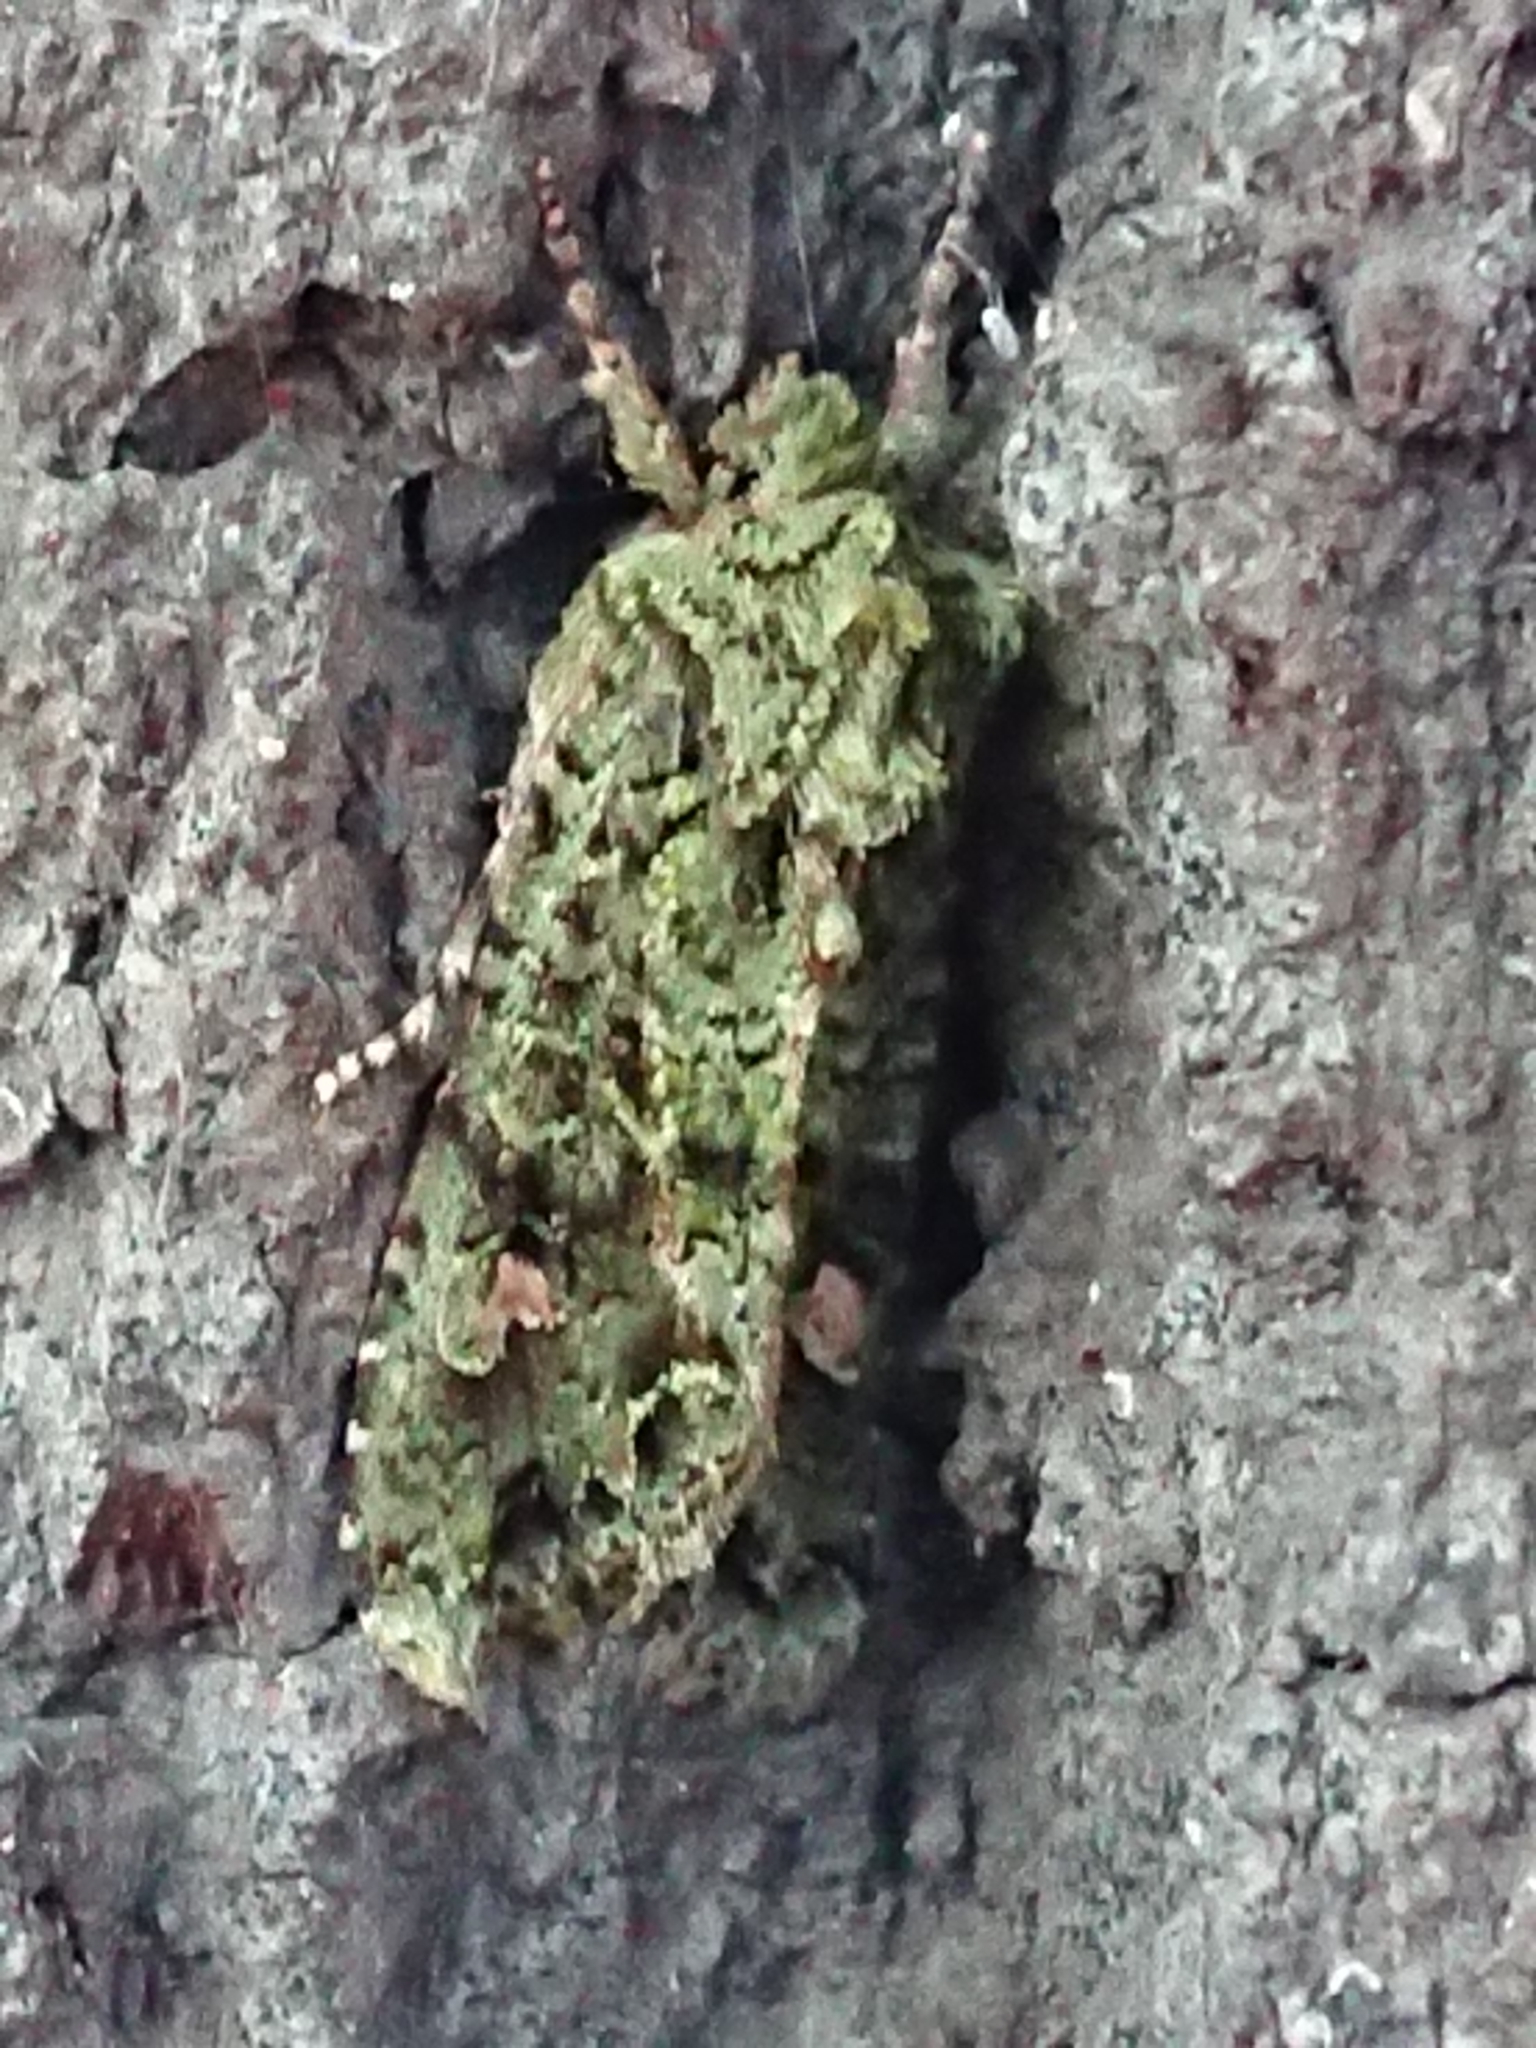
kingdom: Animalia
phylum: Arthropoda
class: Insecta
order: Lepidoptera
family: Noctuidae
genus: Ichneutica
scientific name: Ichneutica
